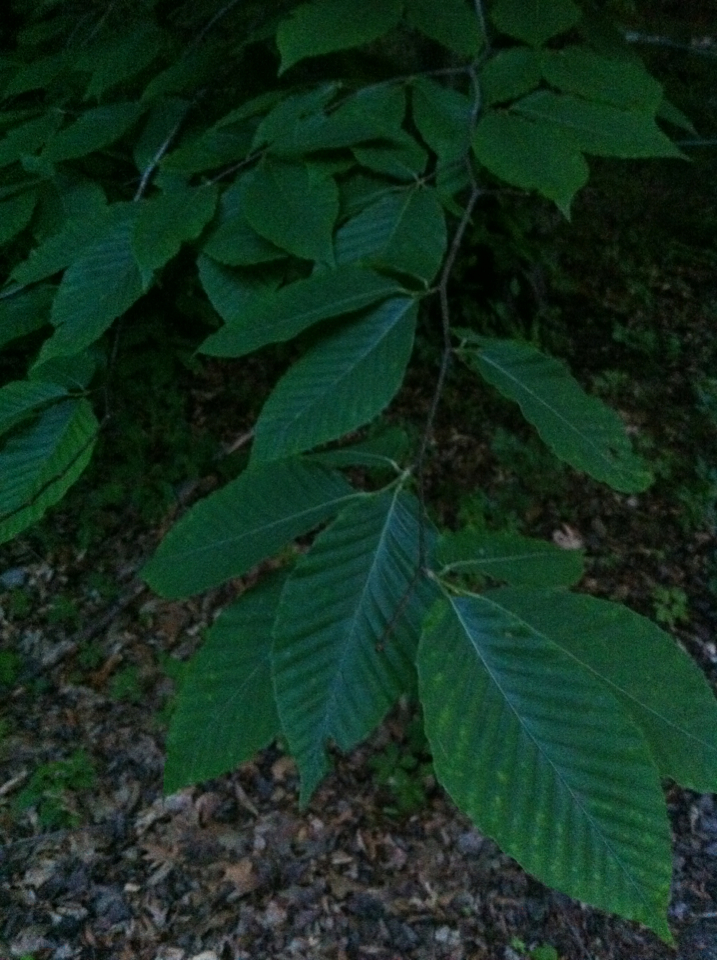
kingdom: Plantae
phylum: Tracheophyta
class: Magnoliopsida
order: Fagales
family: Fagaceae
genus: Fagus
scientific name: Fagus grandifolia
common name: American beech
